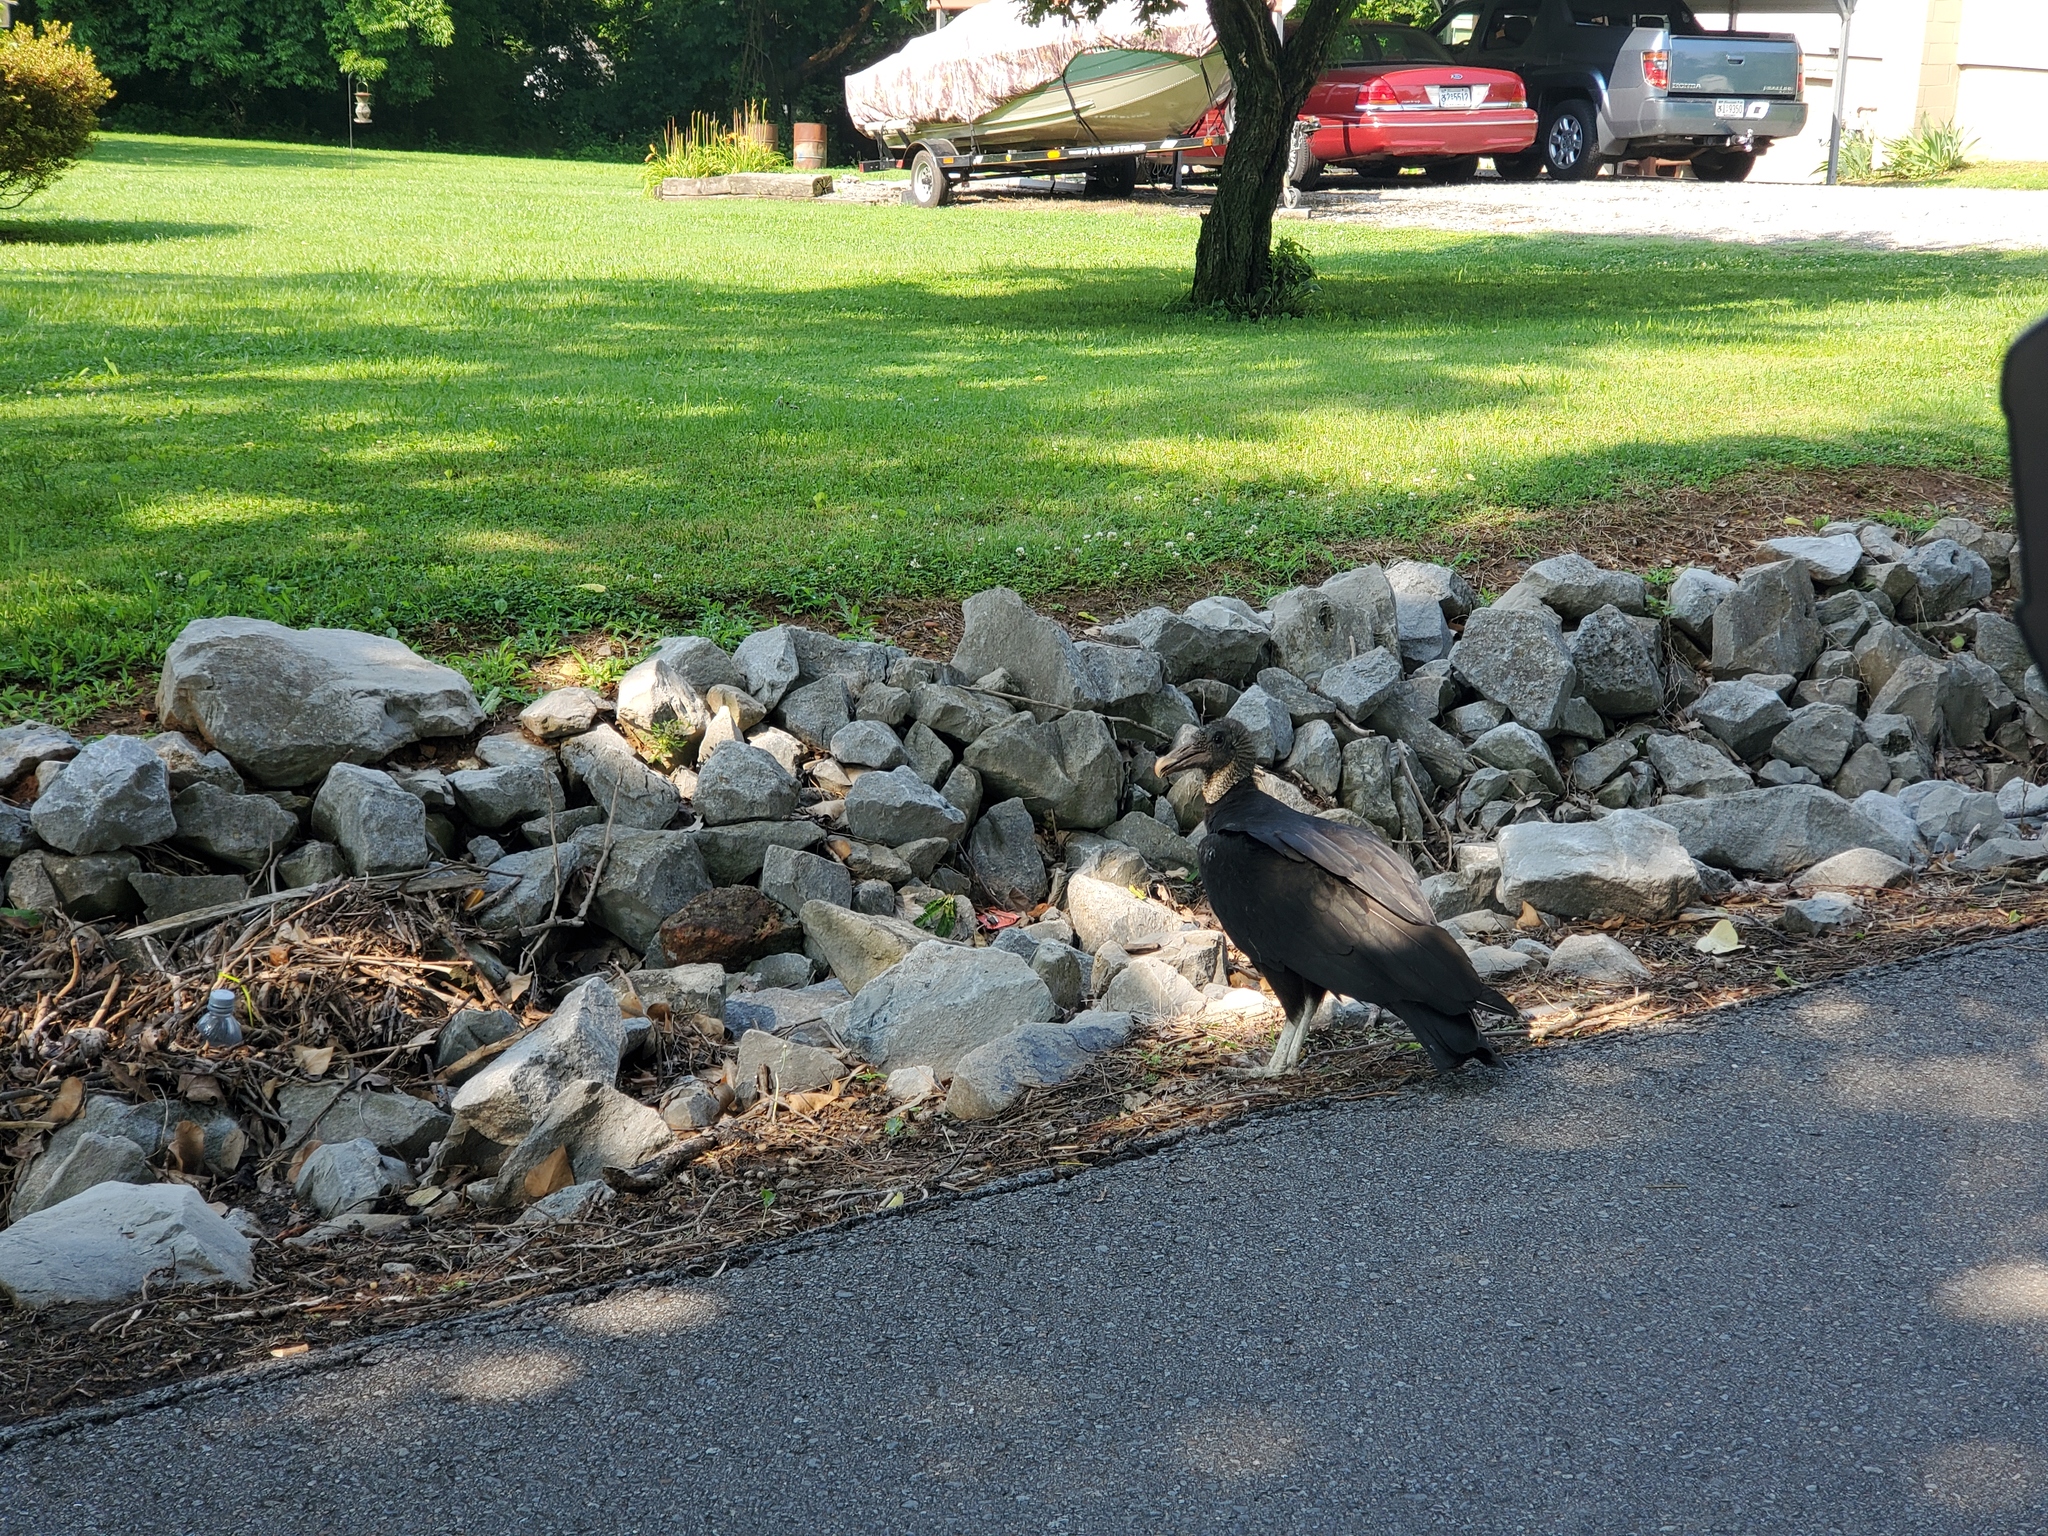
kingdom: Animalia
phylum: Chordata
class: Aves
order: Accipitriformes
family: Cathartidae
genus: Coragyps
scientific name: Coragyps atratus
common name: Black vulture
